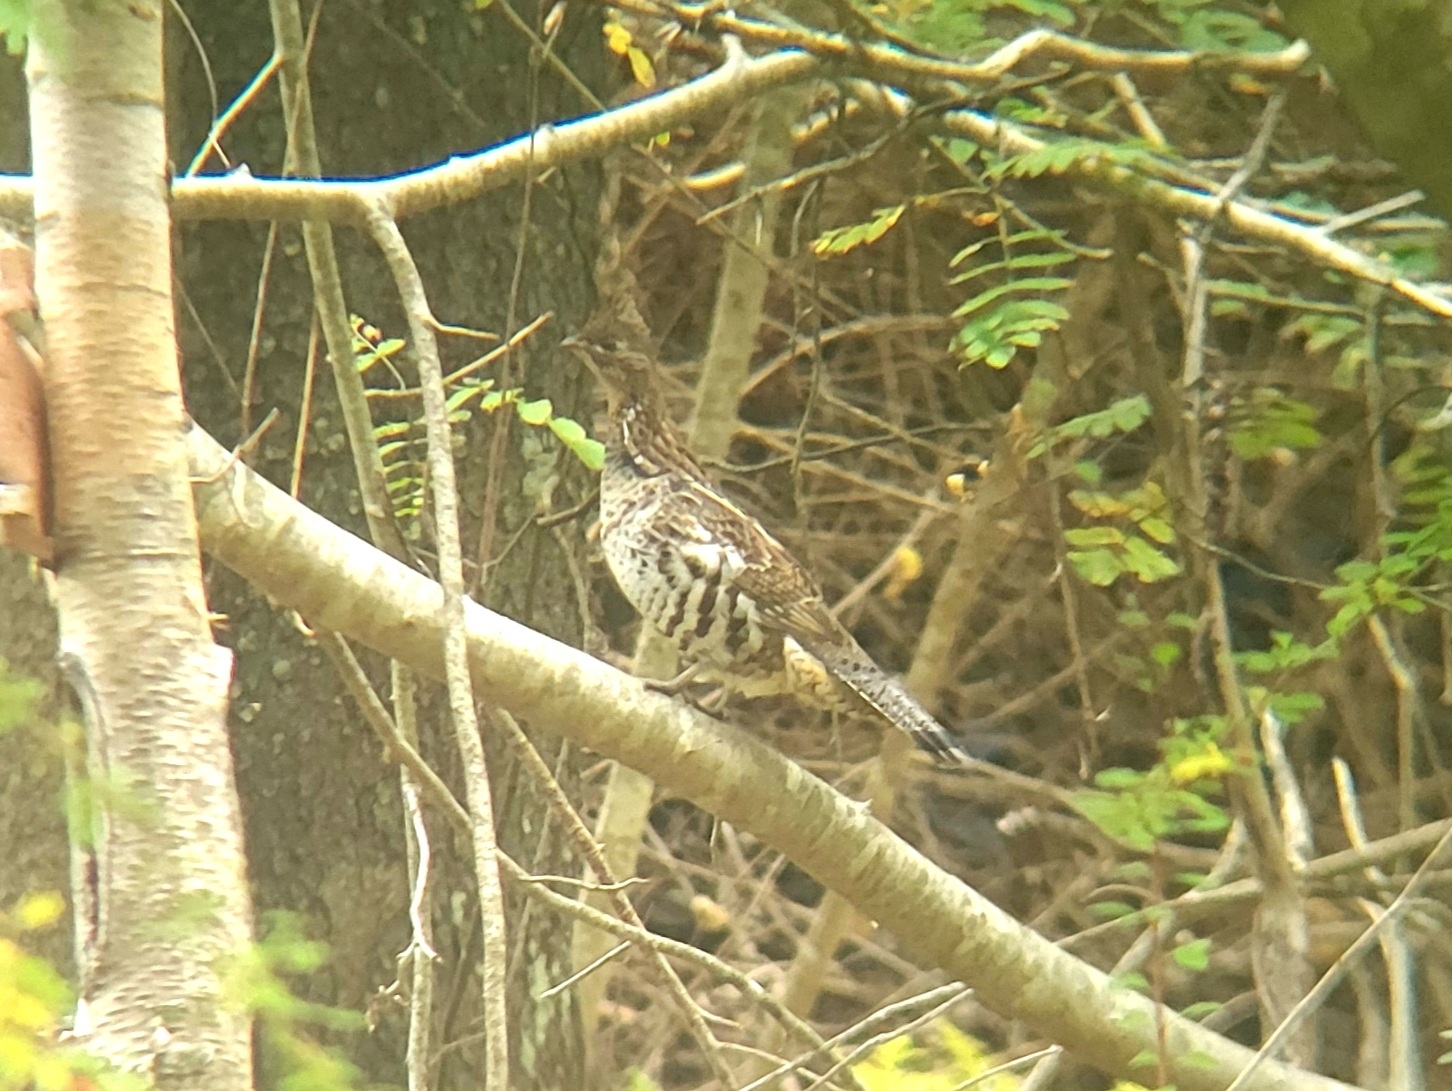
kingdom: Animalia
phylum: Chordata
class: Aves
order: Galliformes
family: Phasianidae
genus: Bonasa
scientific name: Bonasa umbellus
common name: Ruffed grouse
